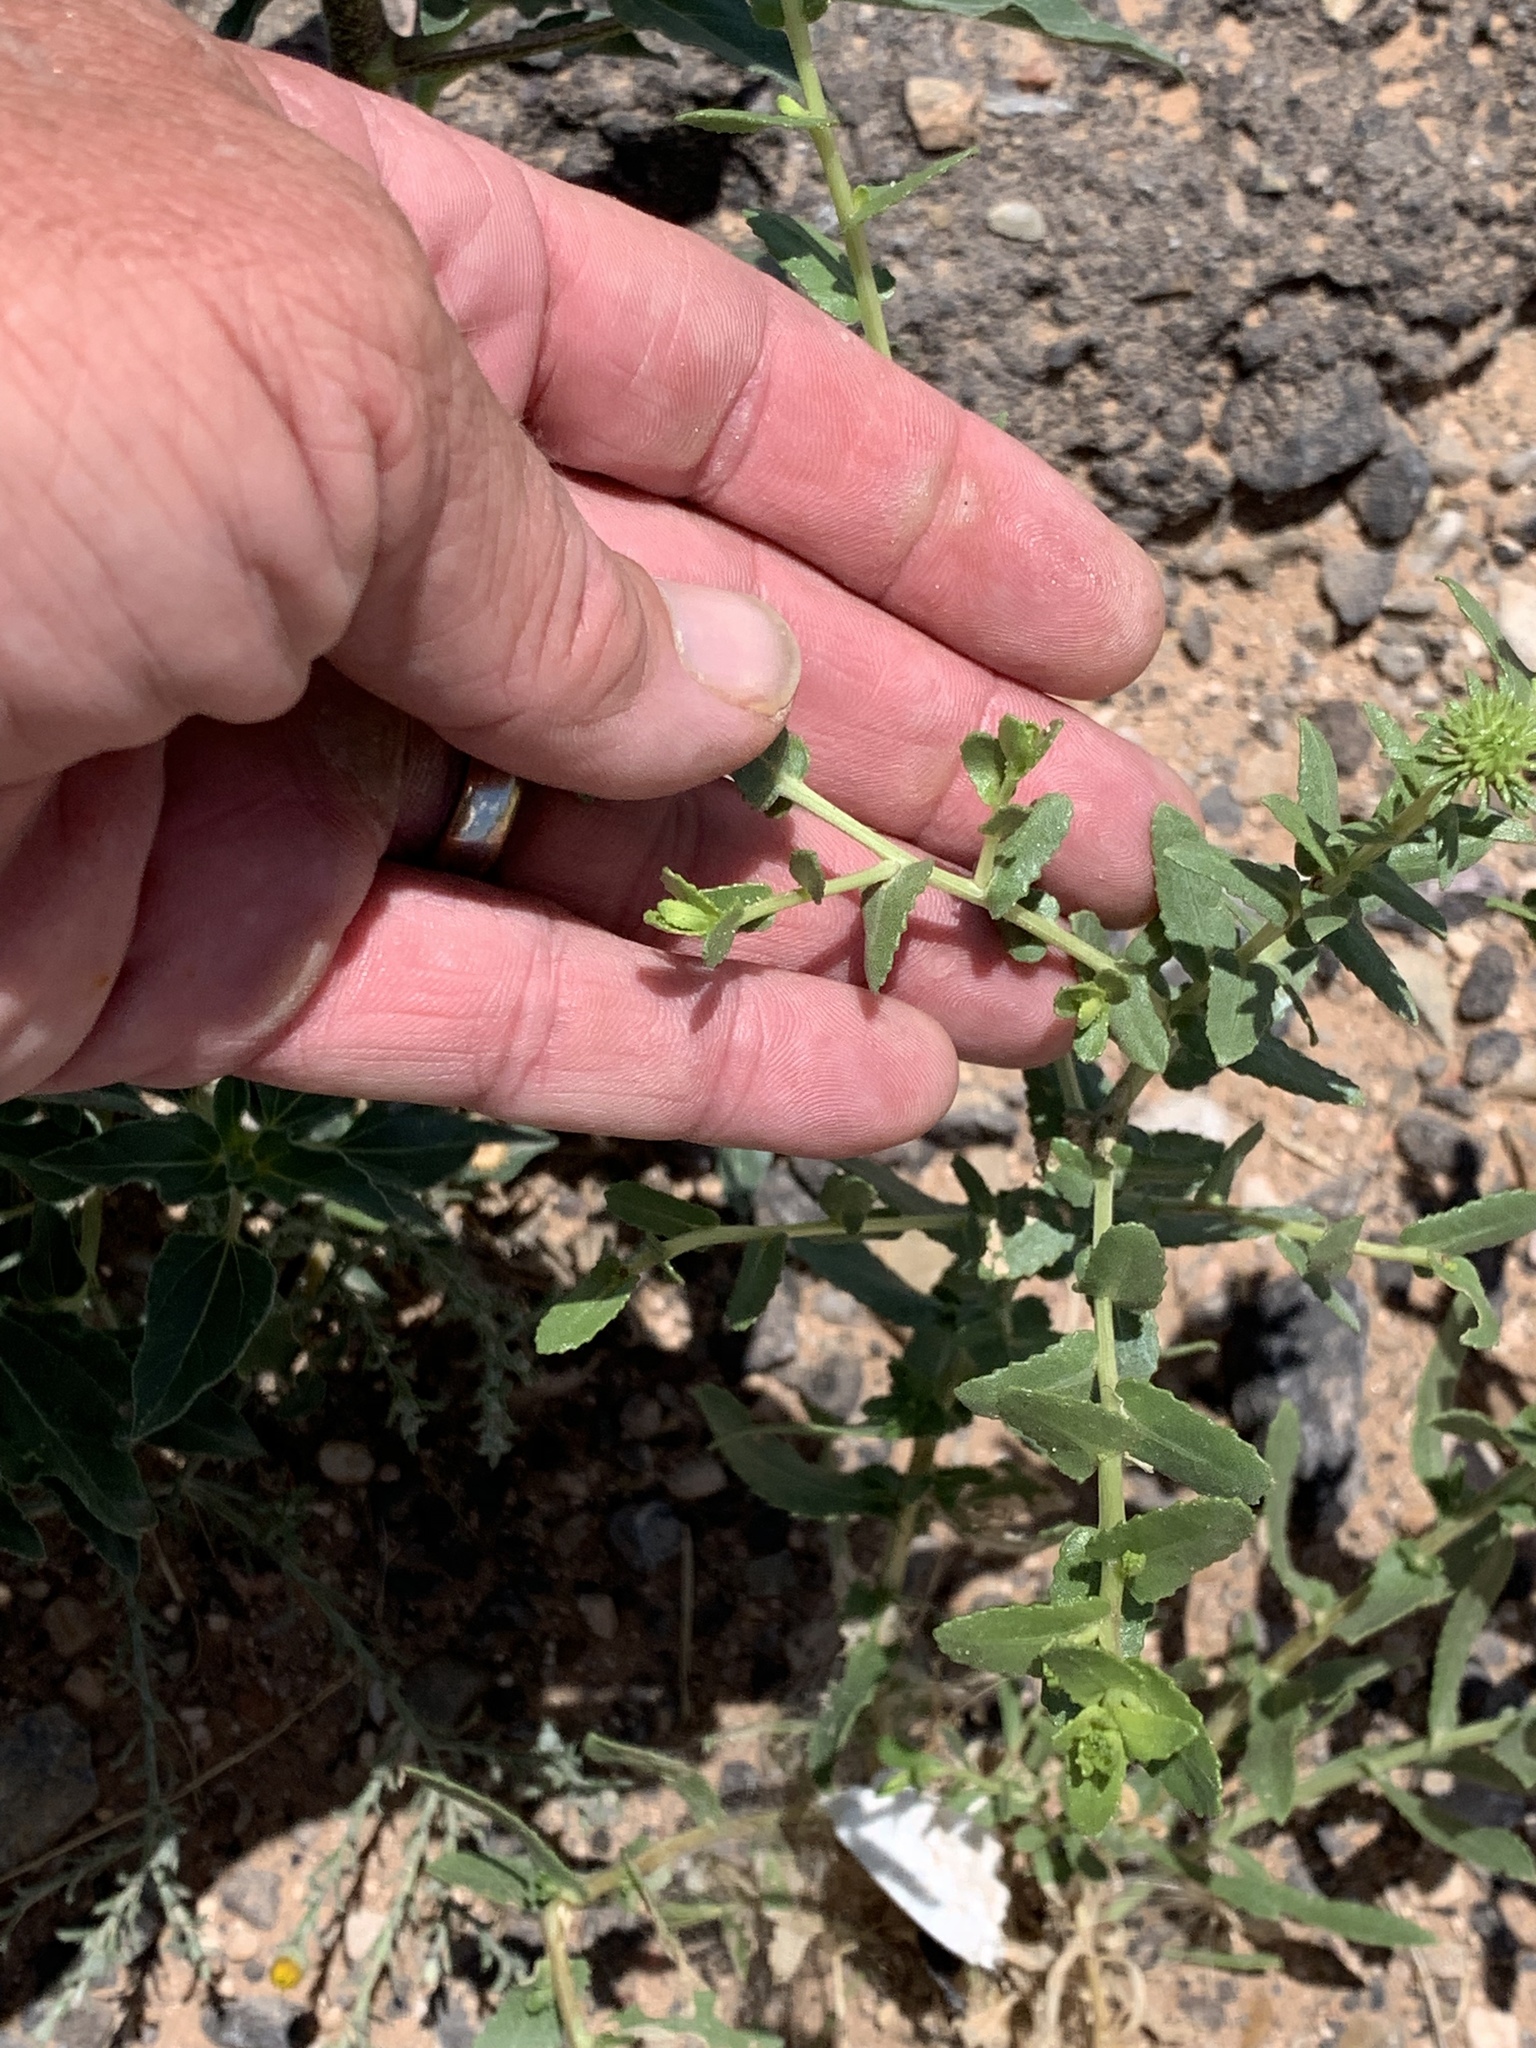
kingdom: Plantae
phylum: Tracheophyta
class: Magnoliopsida
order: Asterales
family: Asteraceae
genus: Grindelia
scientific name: Grindelia squarrosa
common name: Curly-cup gumweed
